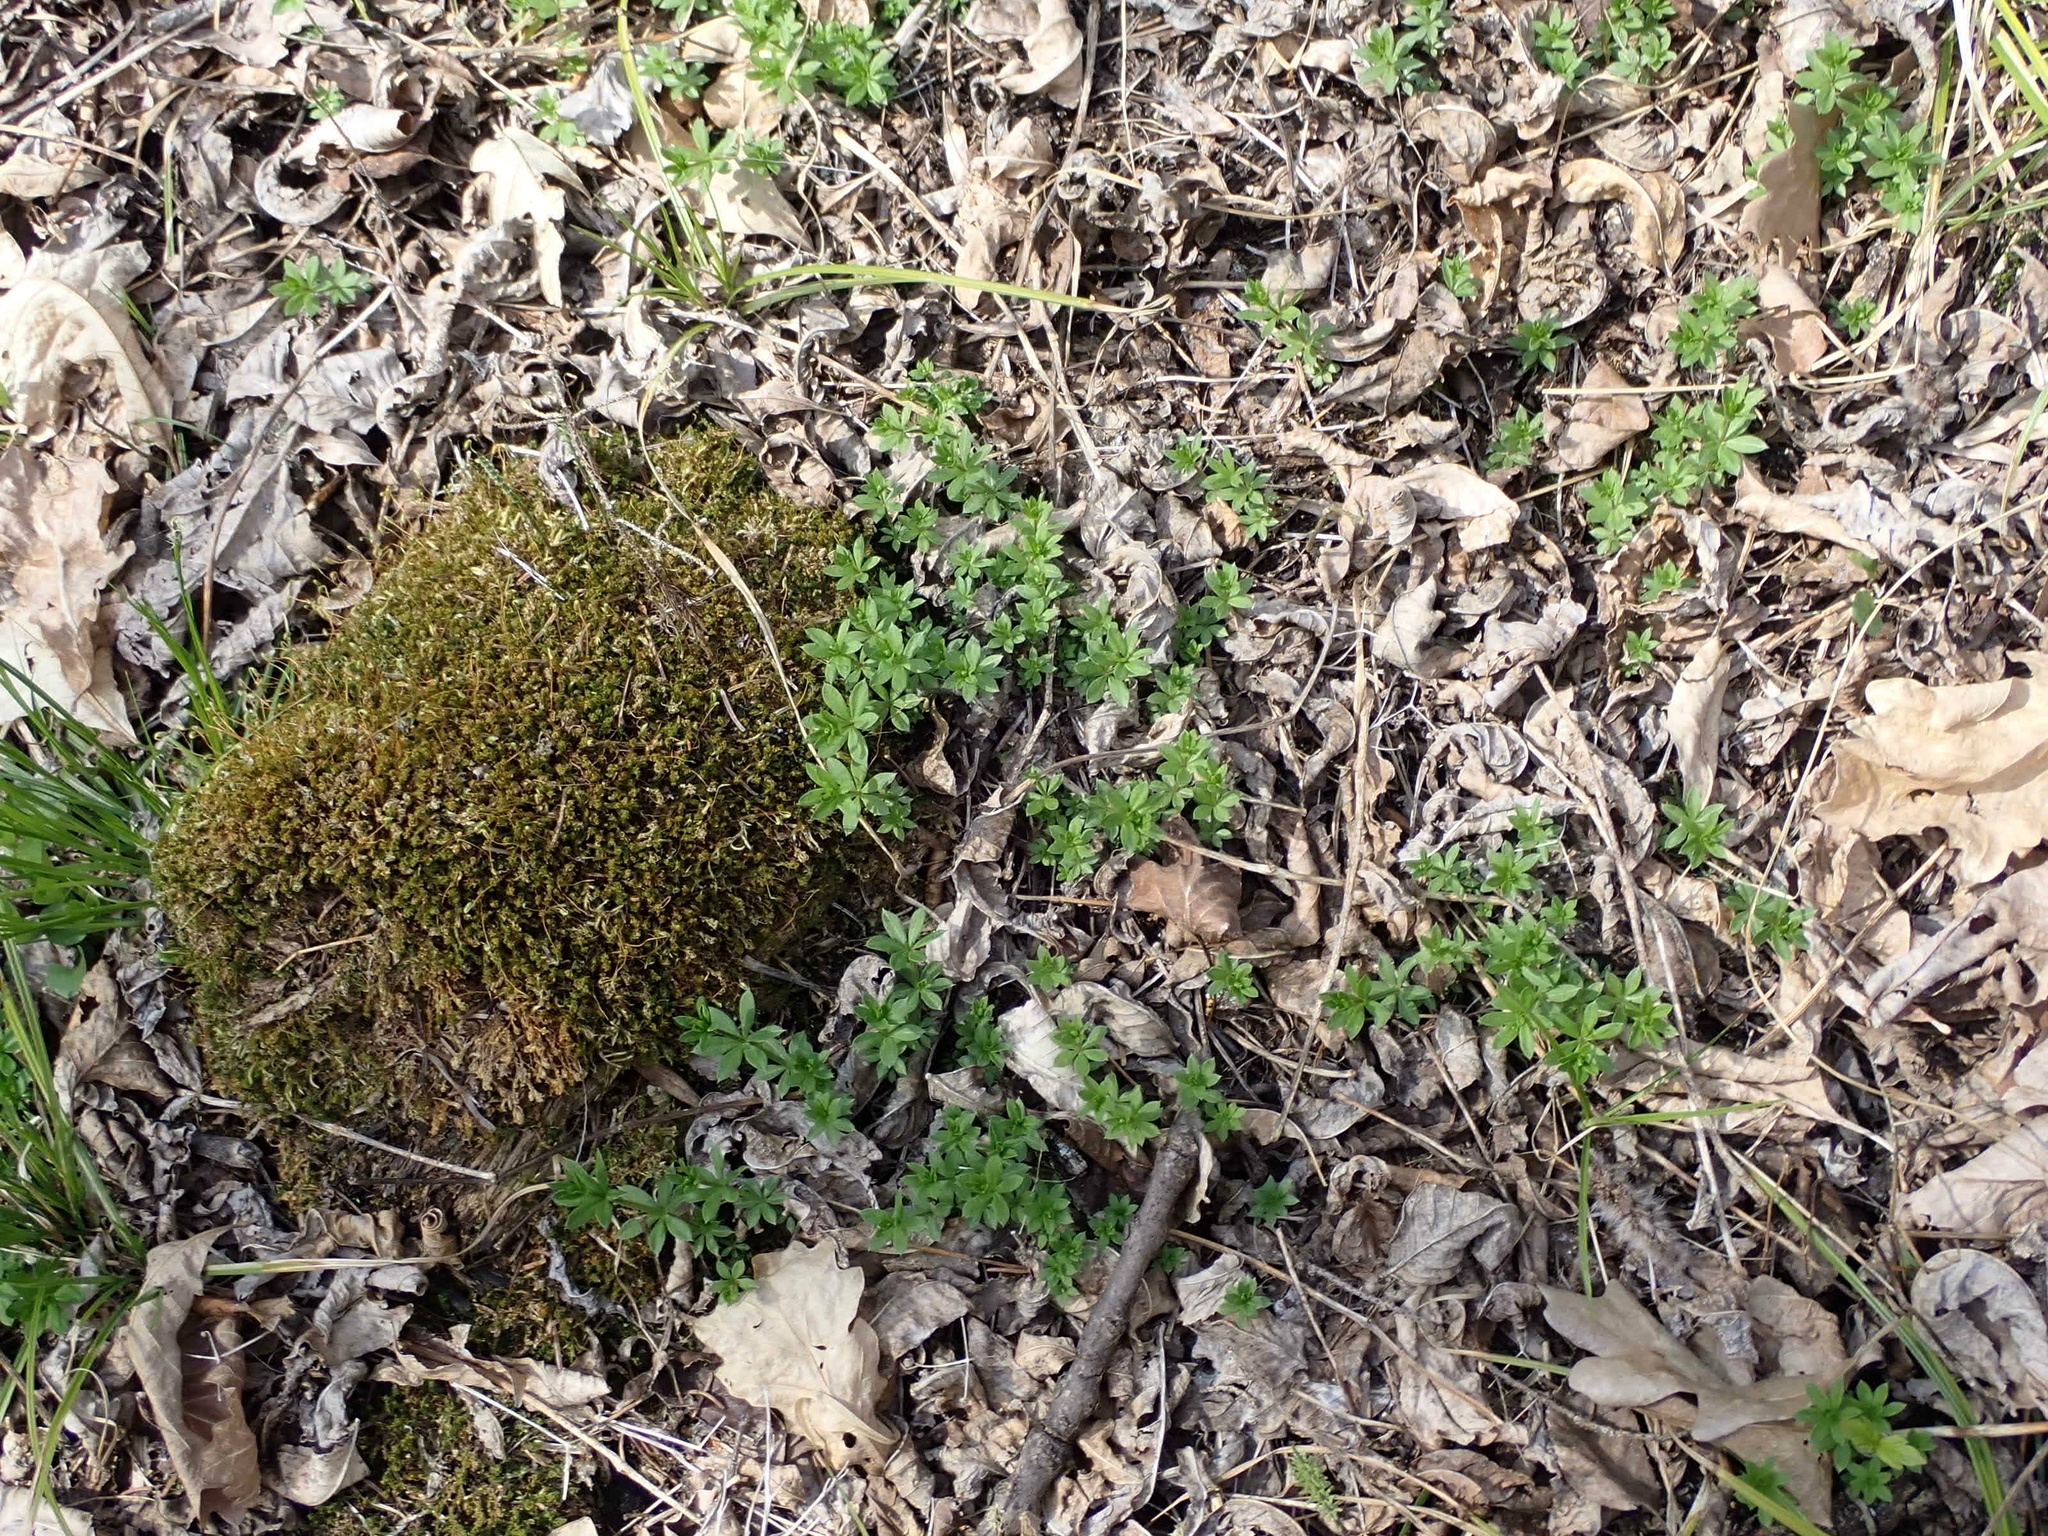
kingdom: Plantae
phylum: Tracheophyta
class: Magnoliopsida
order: Gentianales
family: Rubiaceae
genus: Galium
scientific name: Galium triflorum
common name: Fragrant bedstraw
